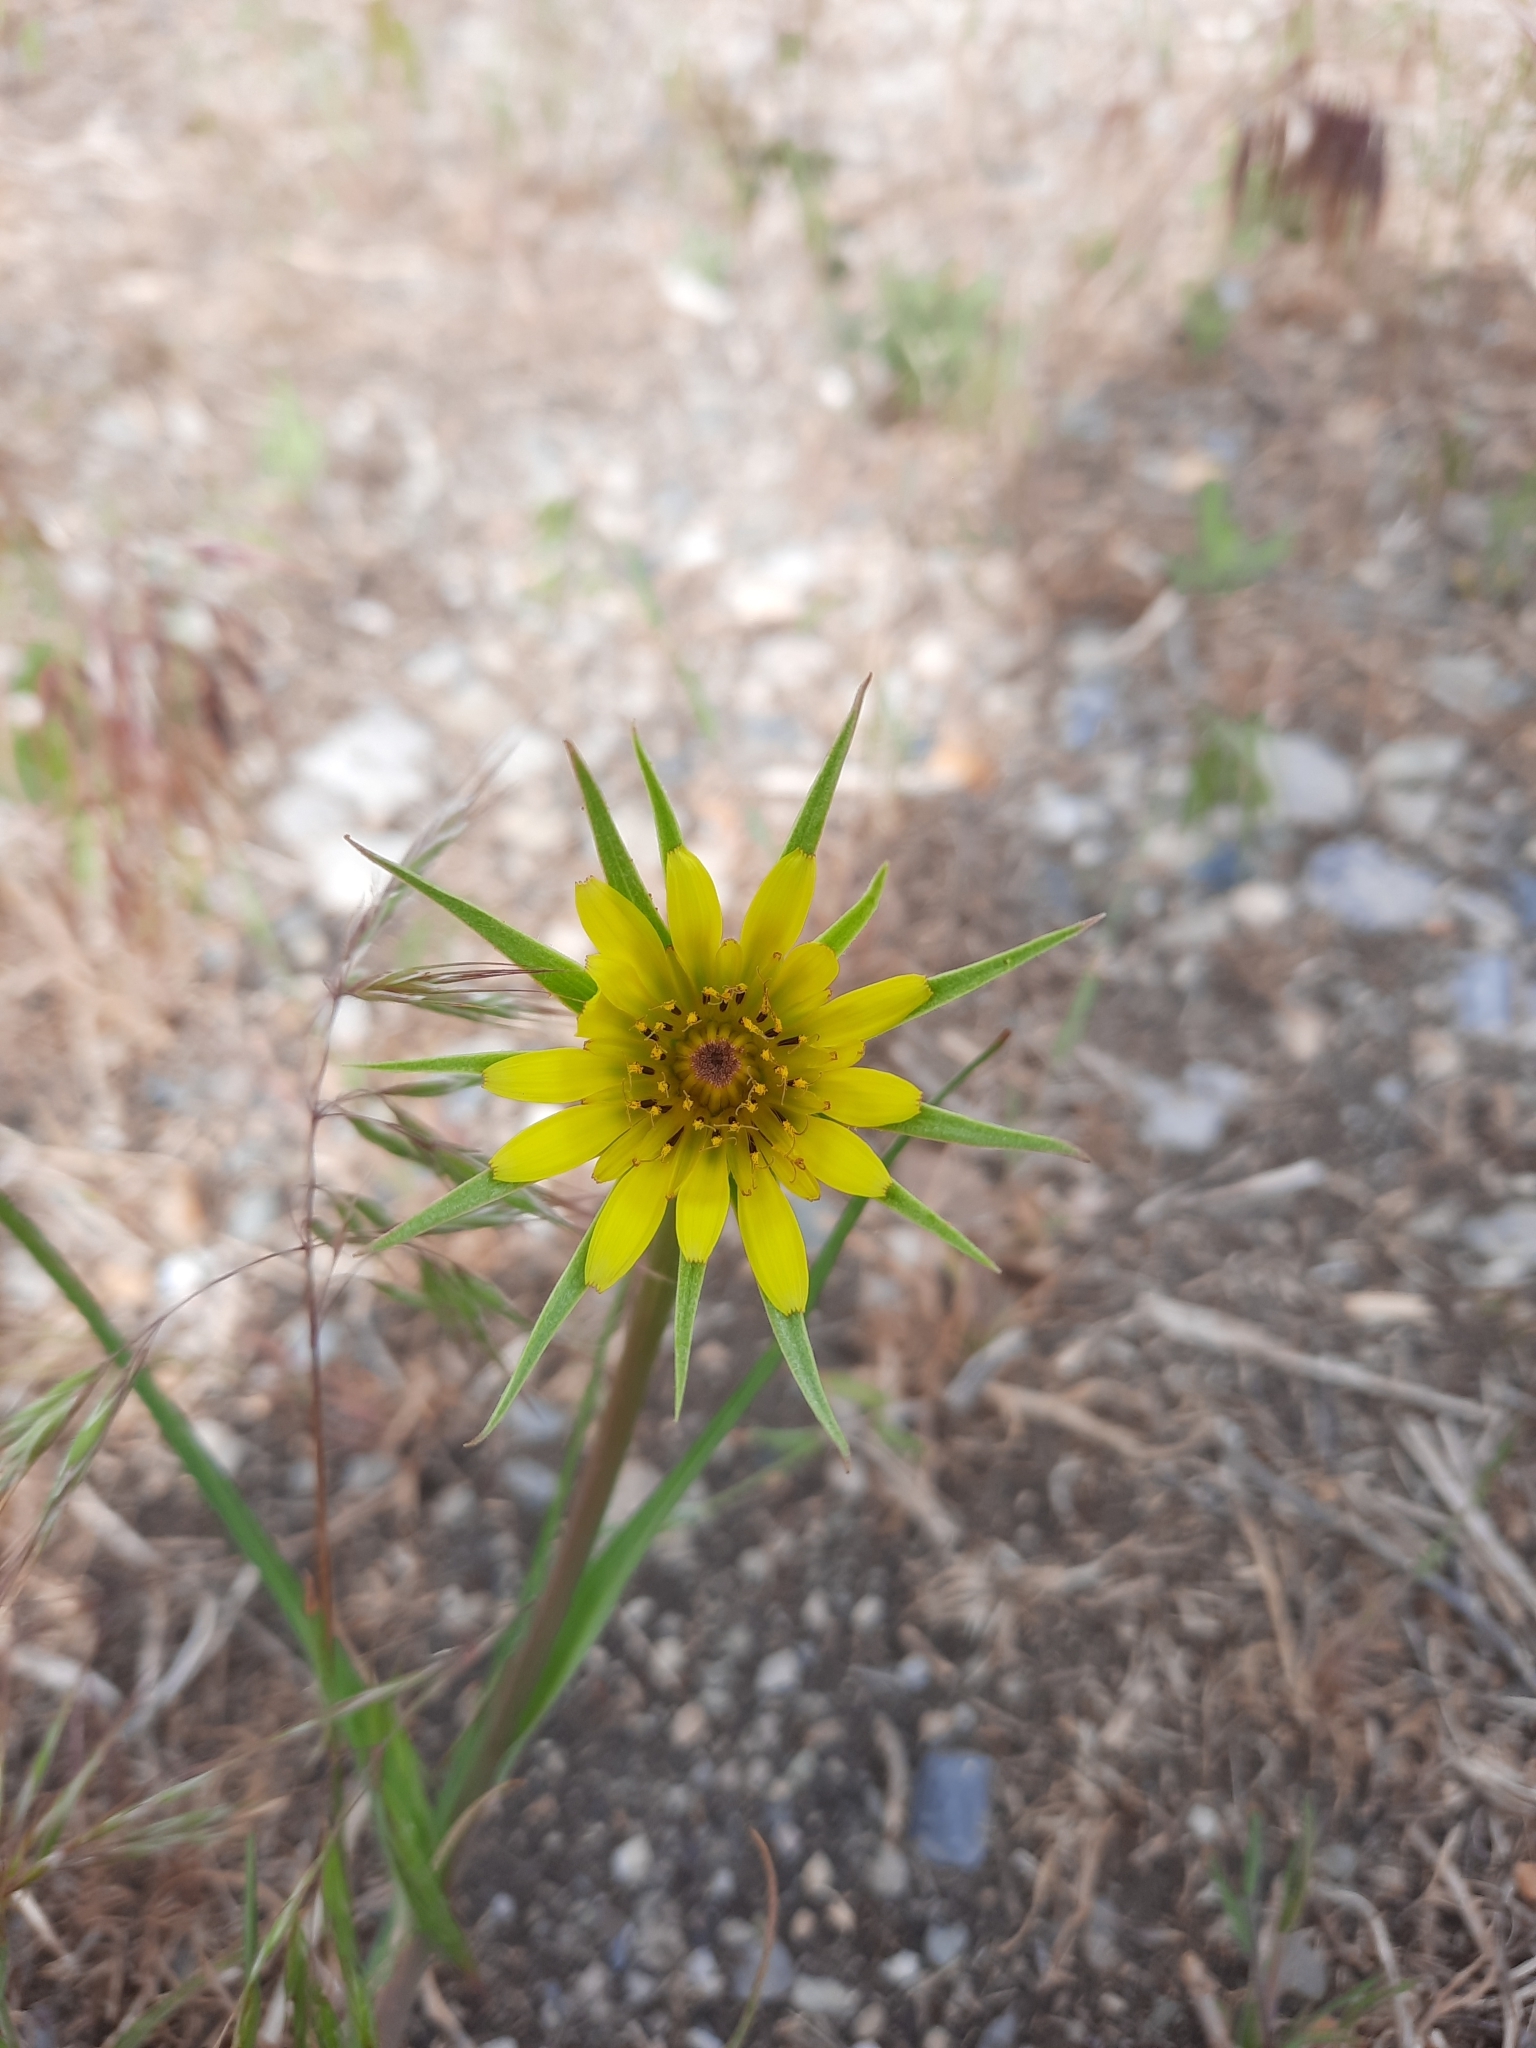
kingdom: Plantae
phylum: Tracheophyta
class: Magnoliopsida
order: Asterales
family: Asteraceae
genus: Tragopogon
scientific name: Tragopogon dubius
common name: Yellow salsify
